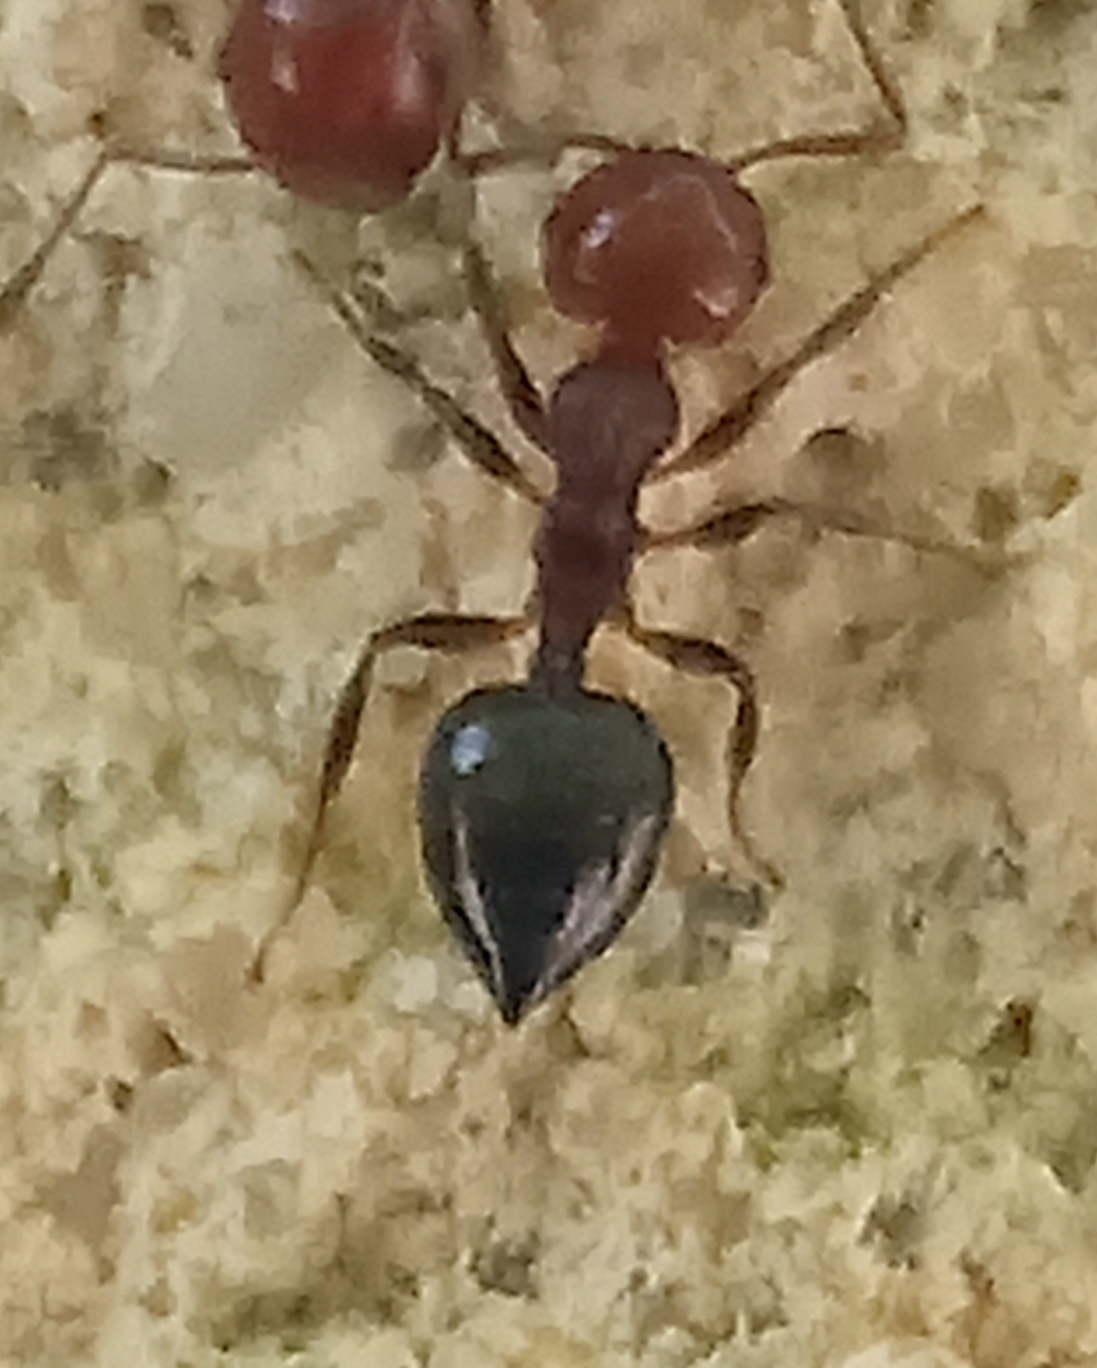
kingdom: Animalia
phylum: Arthropoda
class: Insecta
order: Hymenoptera
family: Formicidae
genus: Crematogaster
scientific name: Crematogaster scutellaris
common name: Fourmi du liège
